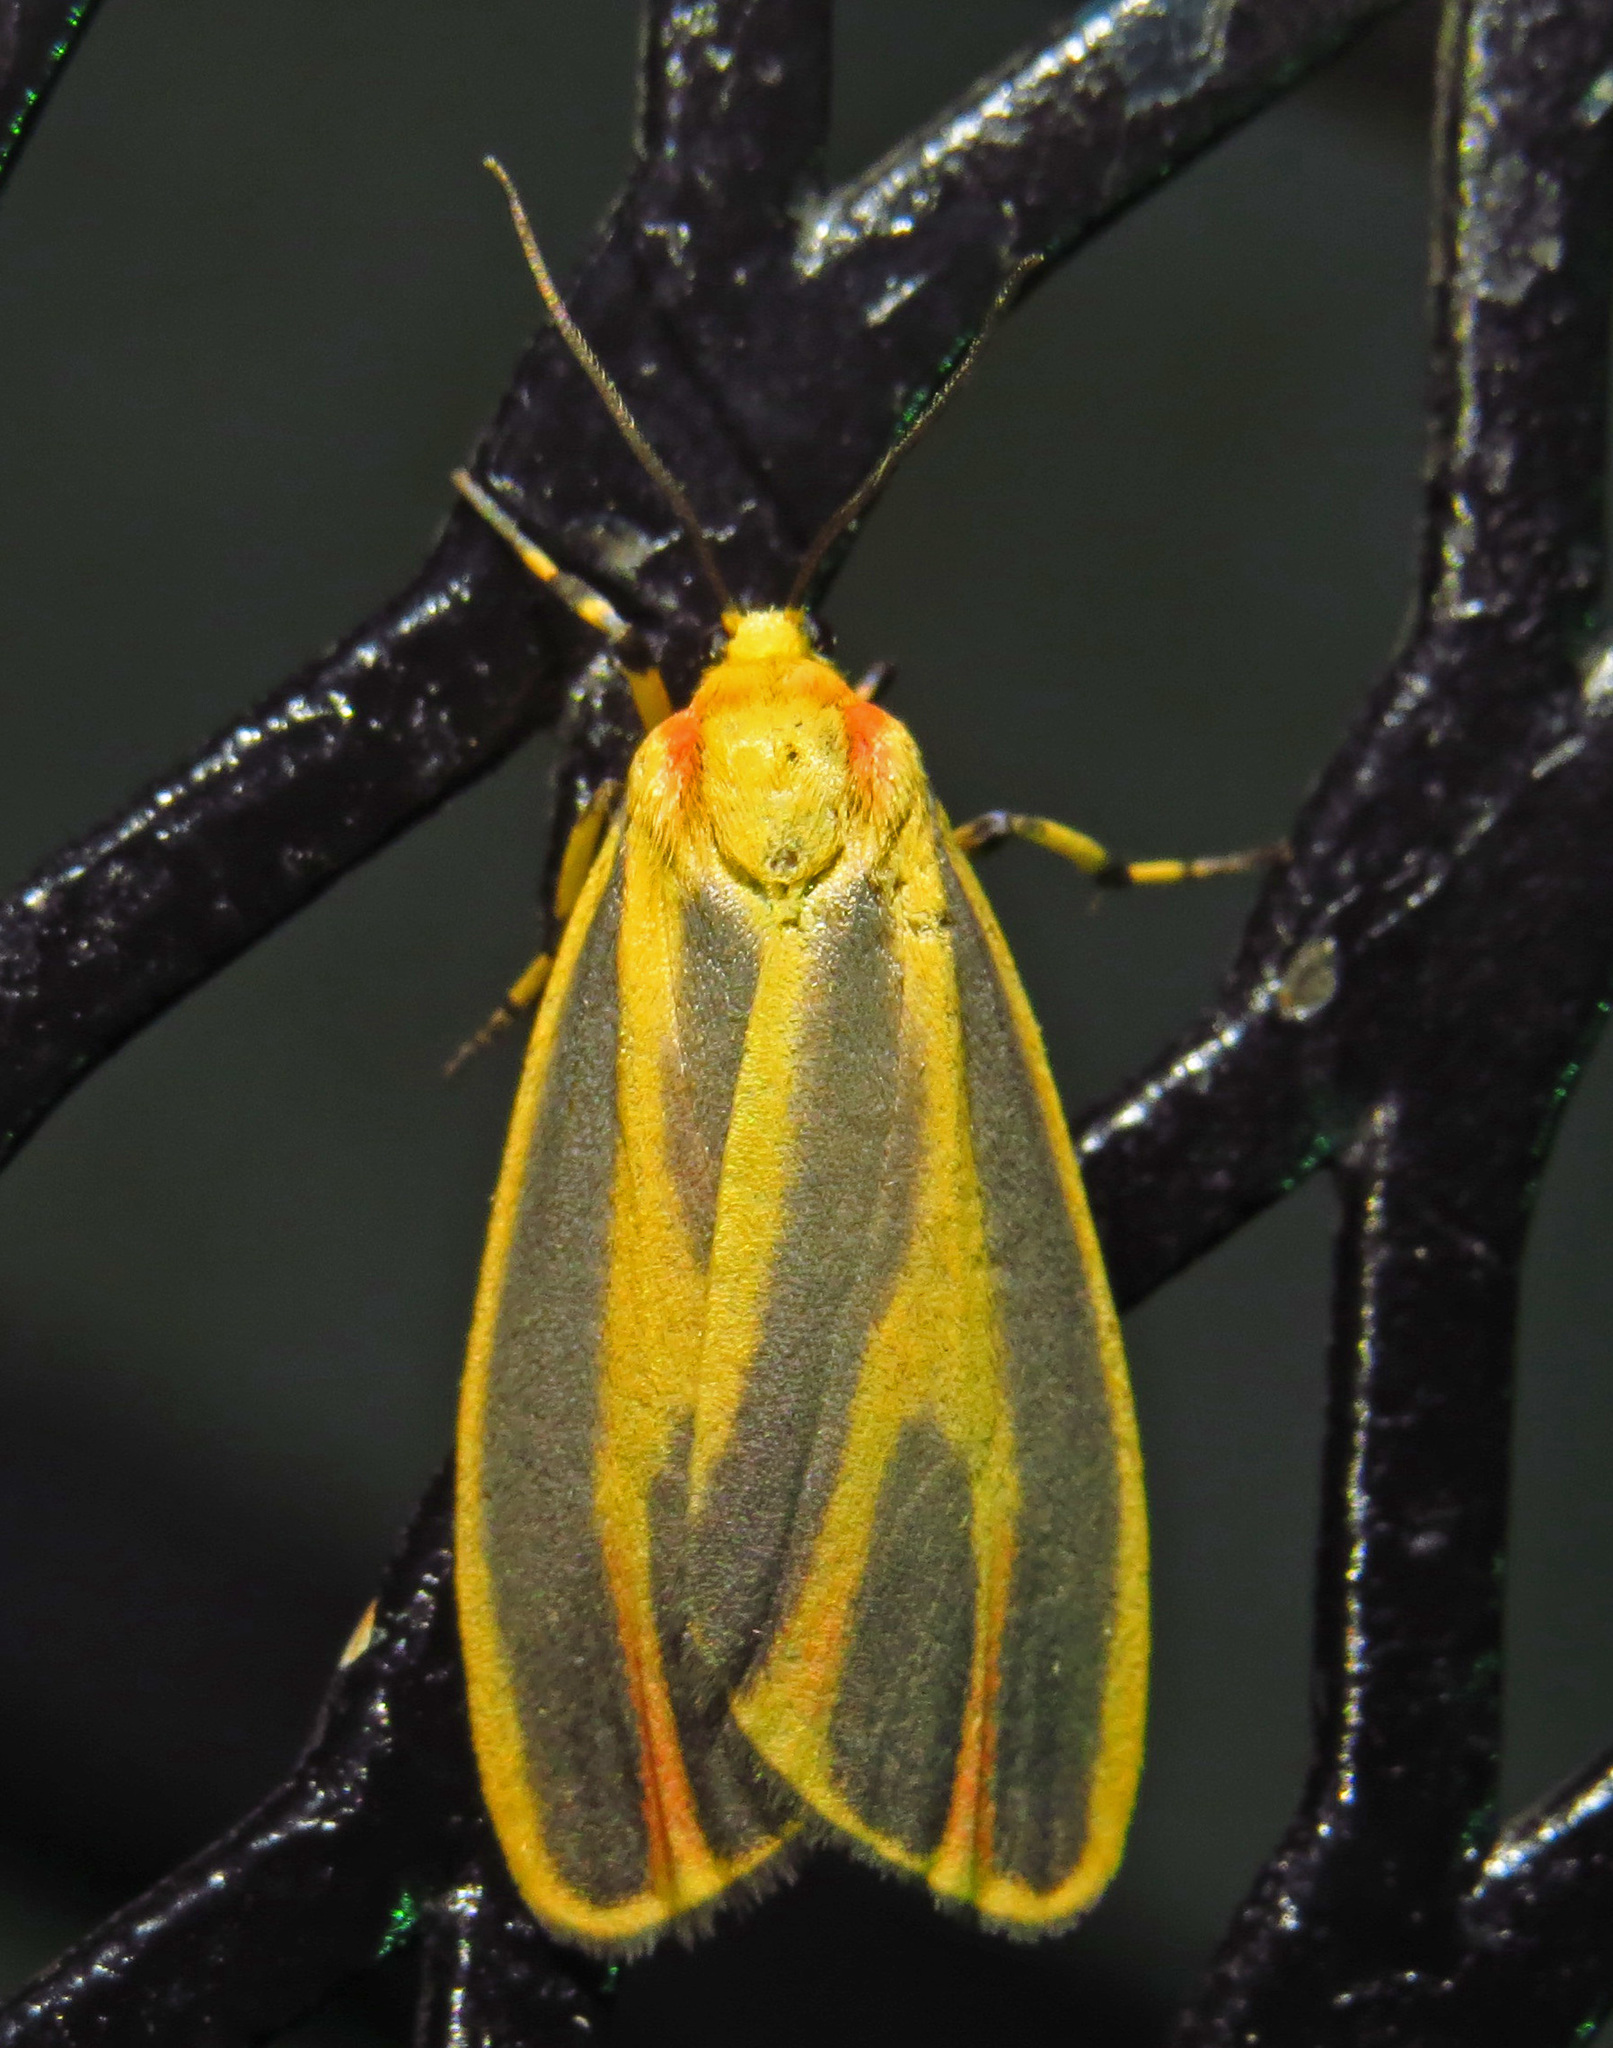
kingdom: Animalia
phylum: Arthropoda
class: Insecta
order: Lepidoptera
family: Erebidae
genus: Hypoprepia
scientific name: Hypoprepia fucosa
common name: Painted lichen moth
